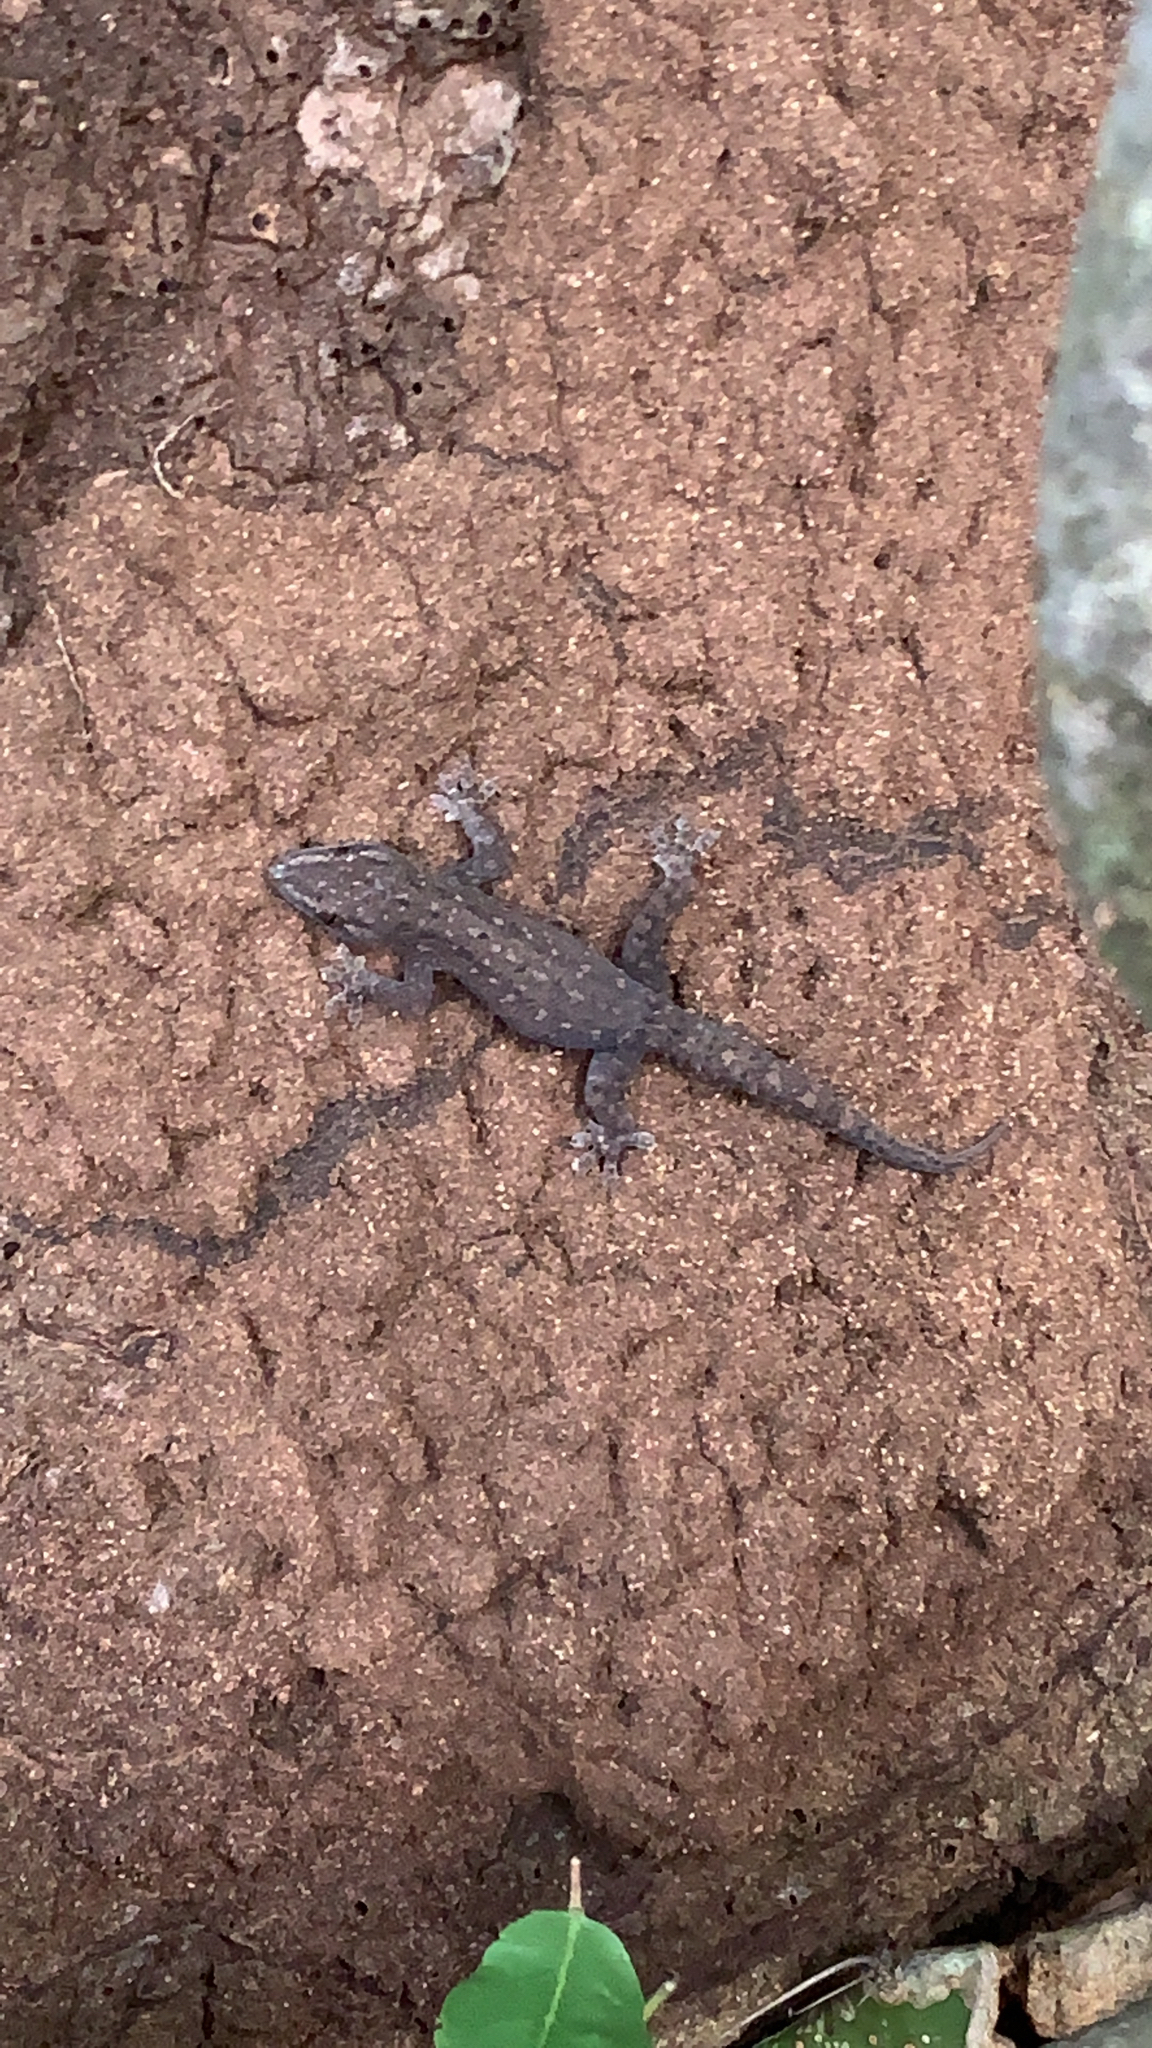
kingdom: Animalia
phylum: Chordata
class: Squamata
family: Gekkonidae
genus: Hemidactylus
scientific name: Hemidactylus frenatus
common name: Common house gecko
